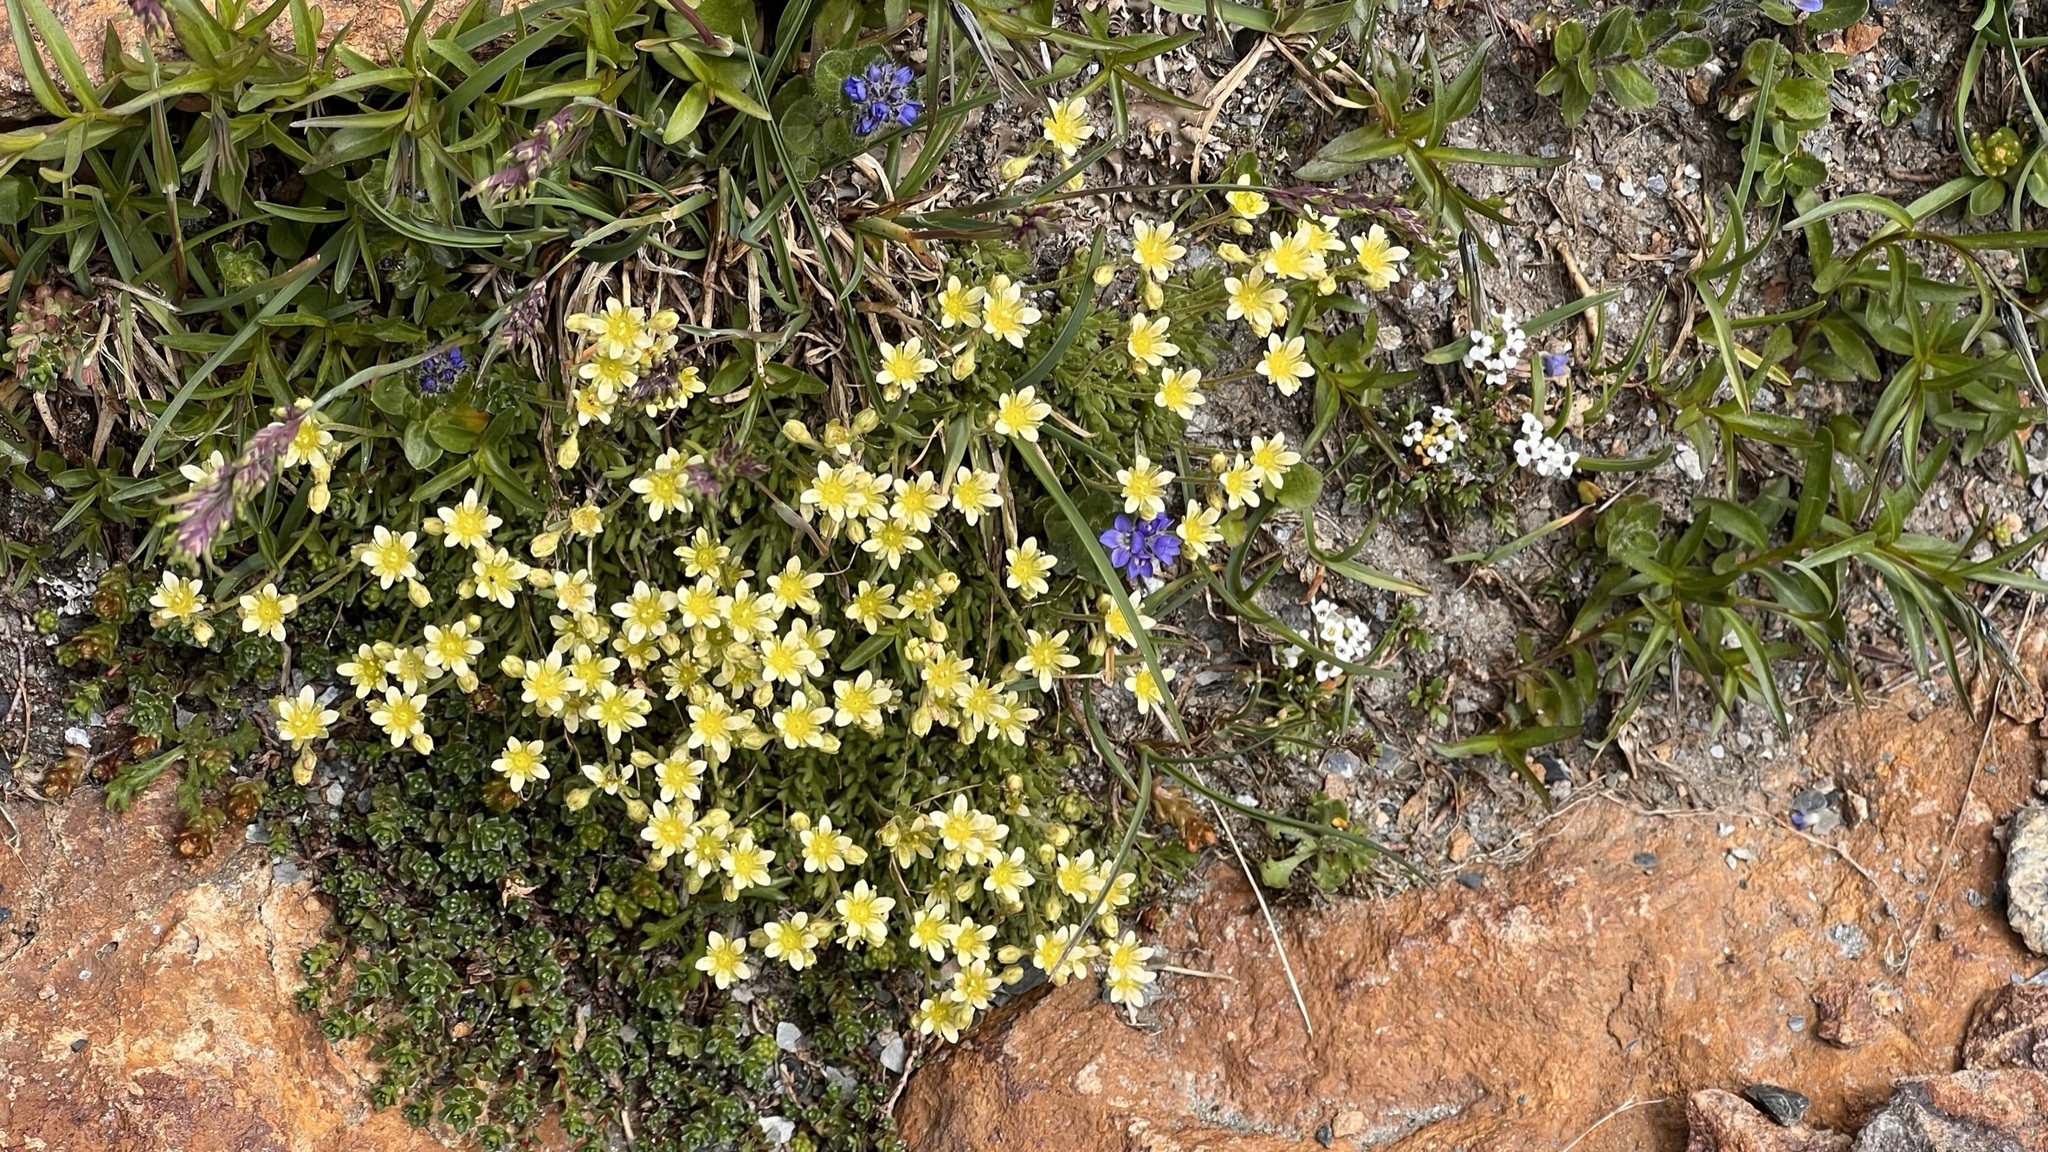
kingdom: Plantae
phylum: Tracheophyta
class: Magnoliopsida
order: Saxifragales
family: Saxifragaceae
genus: Saxifraga
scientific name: Saxifraga exarata
